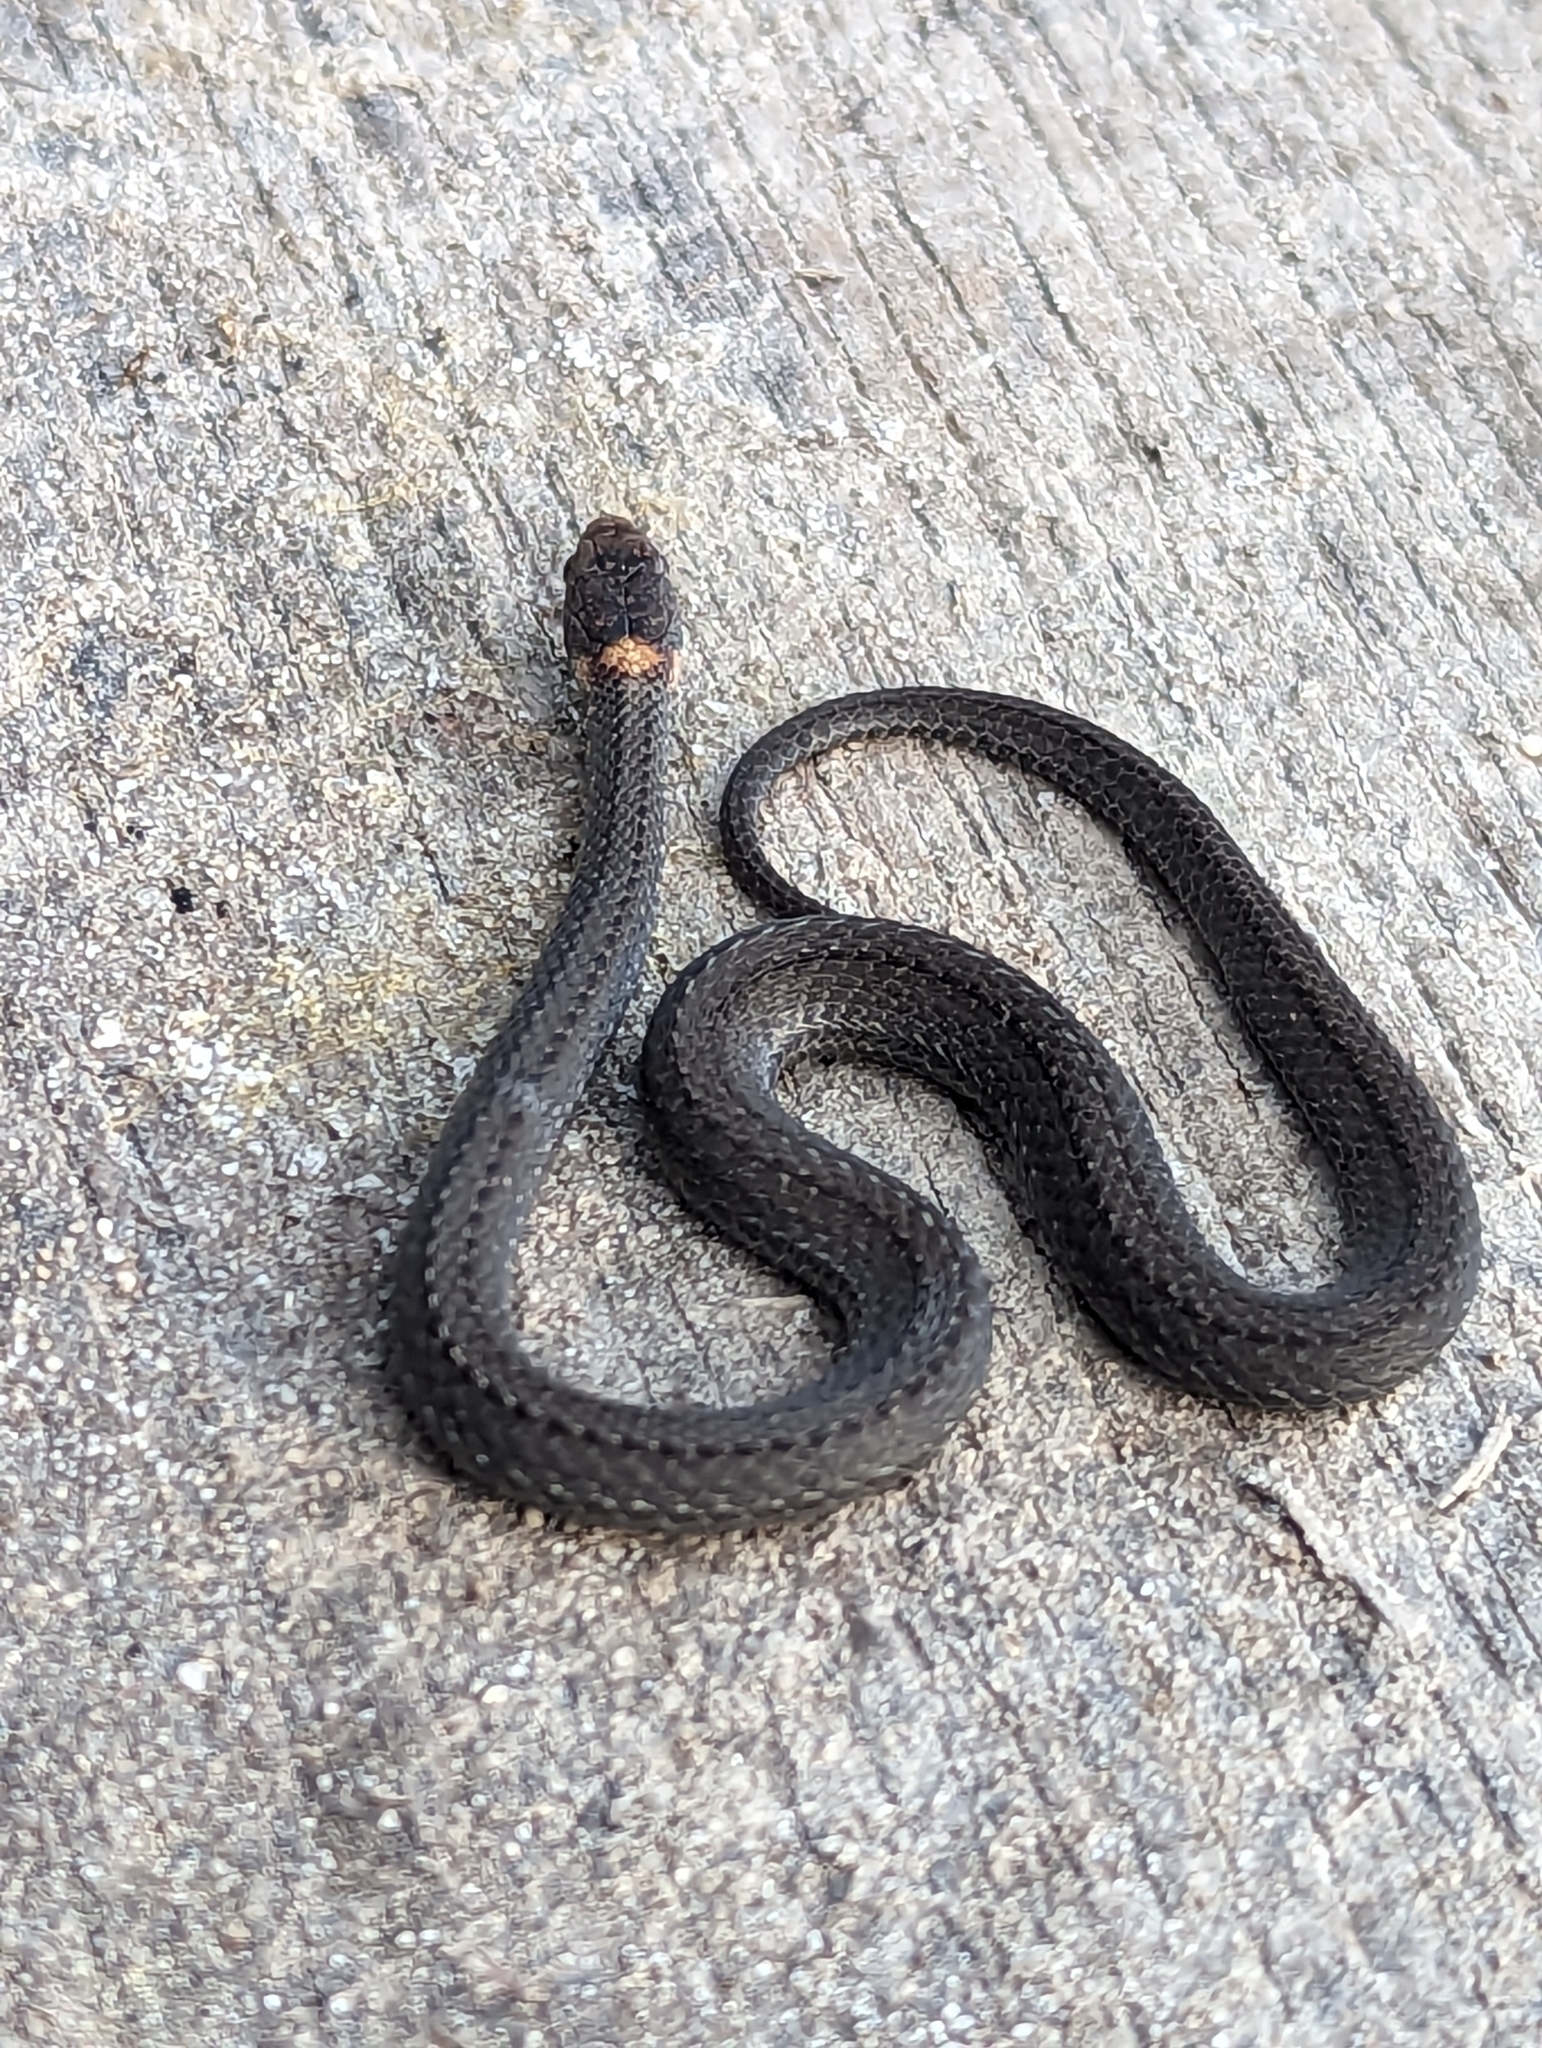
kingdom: Animalia
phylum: Chordata
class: Squamata
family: Colubridae
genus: Storeria
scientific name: Storeria occipitomaculata
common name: Redbelly snake
